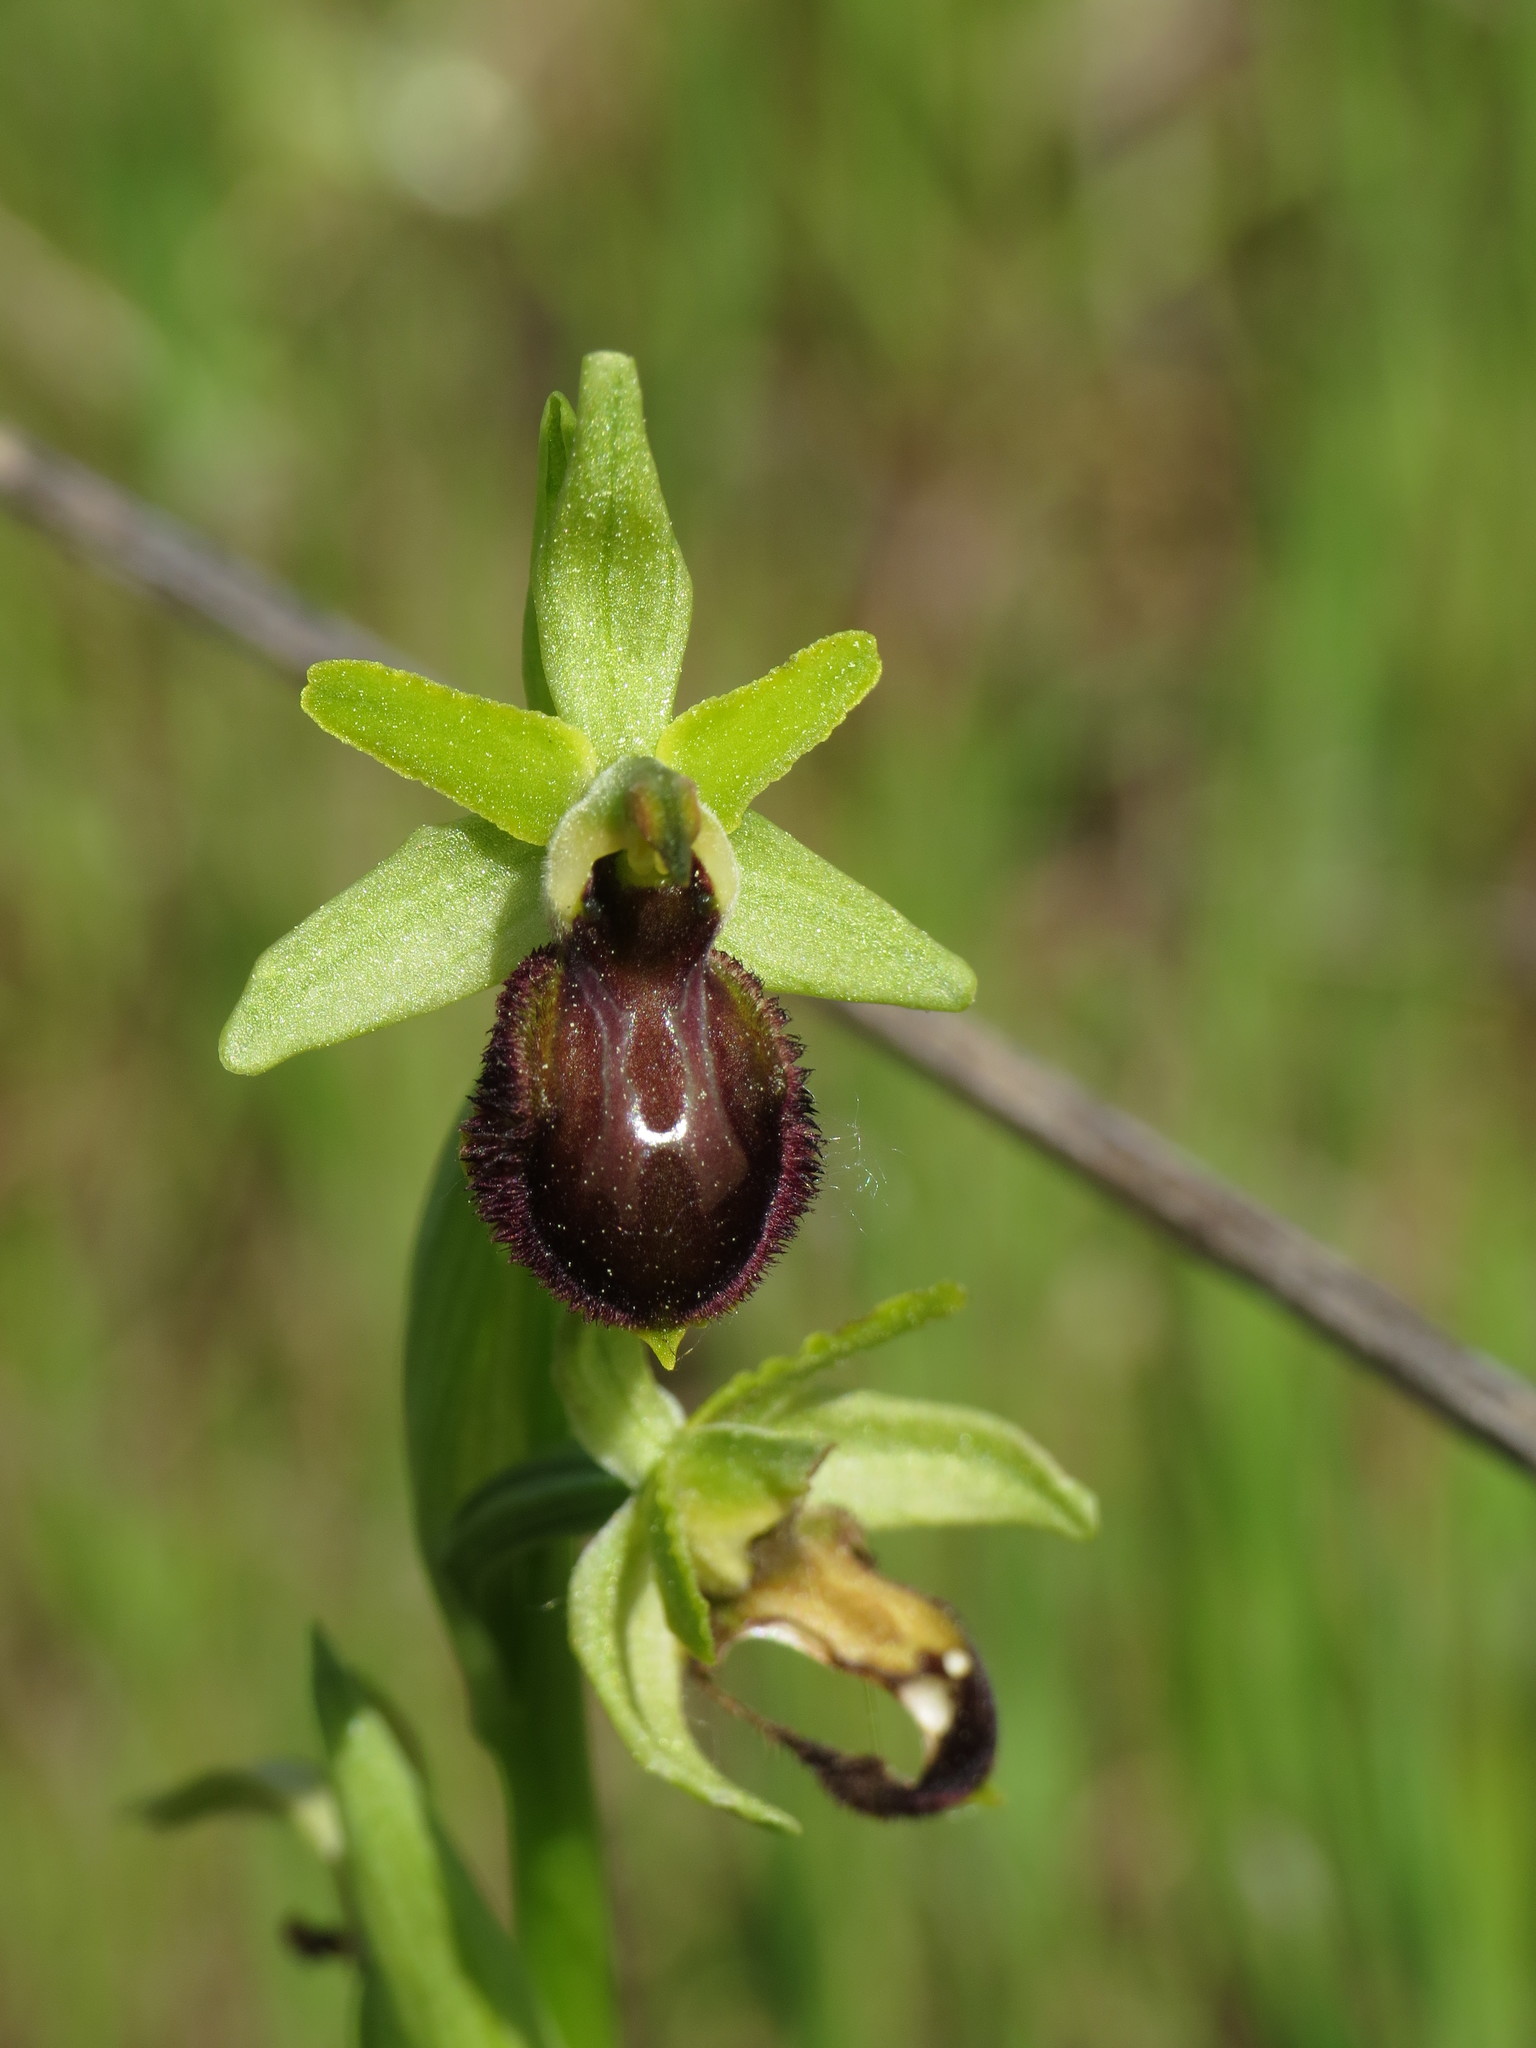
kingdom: Plantae
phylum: Tracheophyta
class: Liliopsida
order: Asparagales
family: Orchidaceae
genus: Ophrys
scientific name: Ophrys sphegodes
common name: Early spider-orchid
